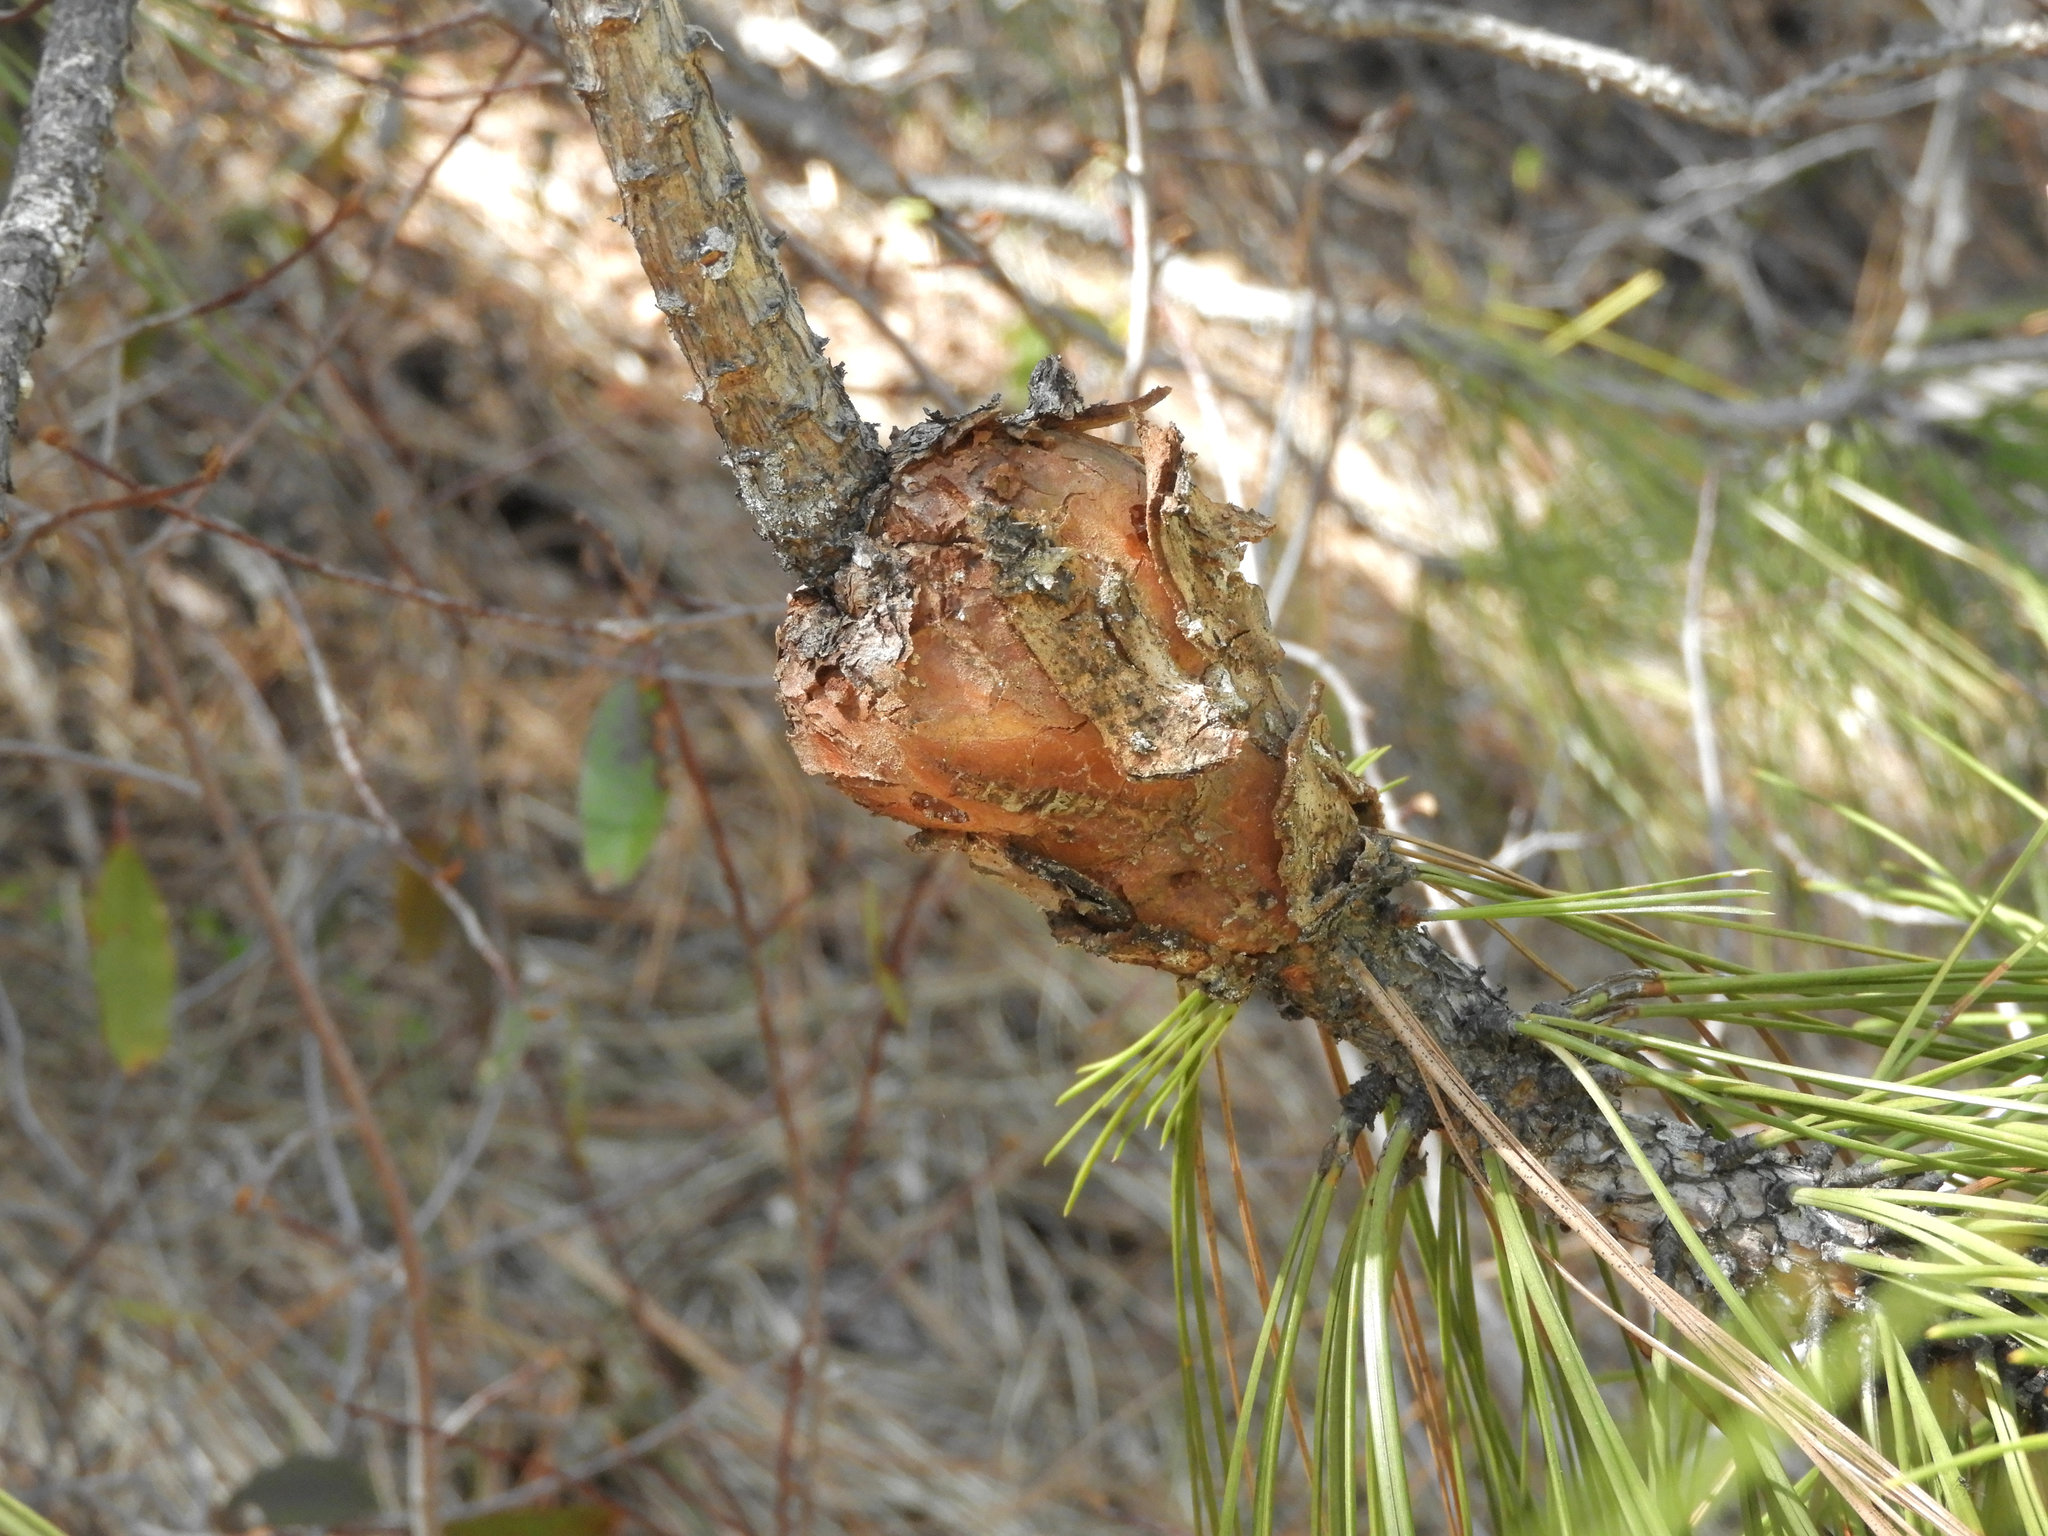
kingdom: Fungi
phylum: Basidiomycota
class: Pucciniomycetes
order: Pucciniales
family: Cronartiaceae
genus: Cronartium
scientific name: Cronartium harknessii
